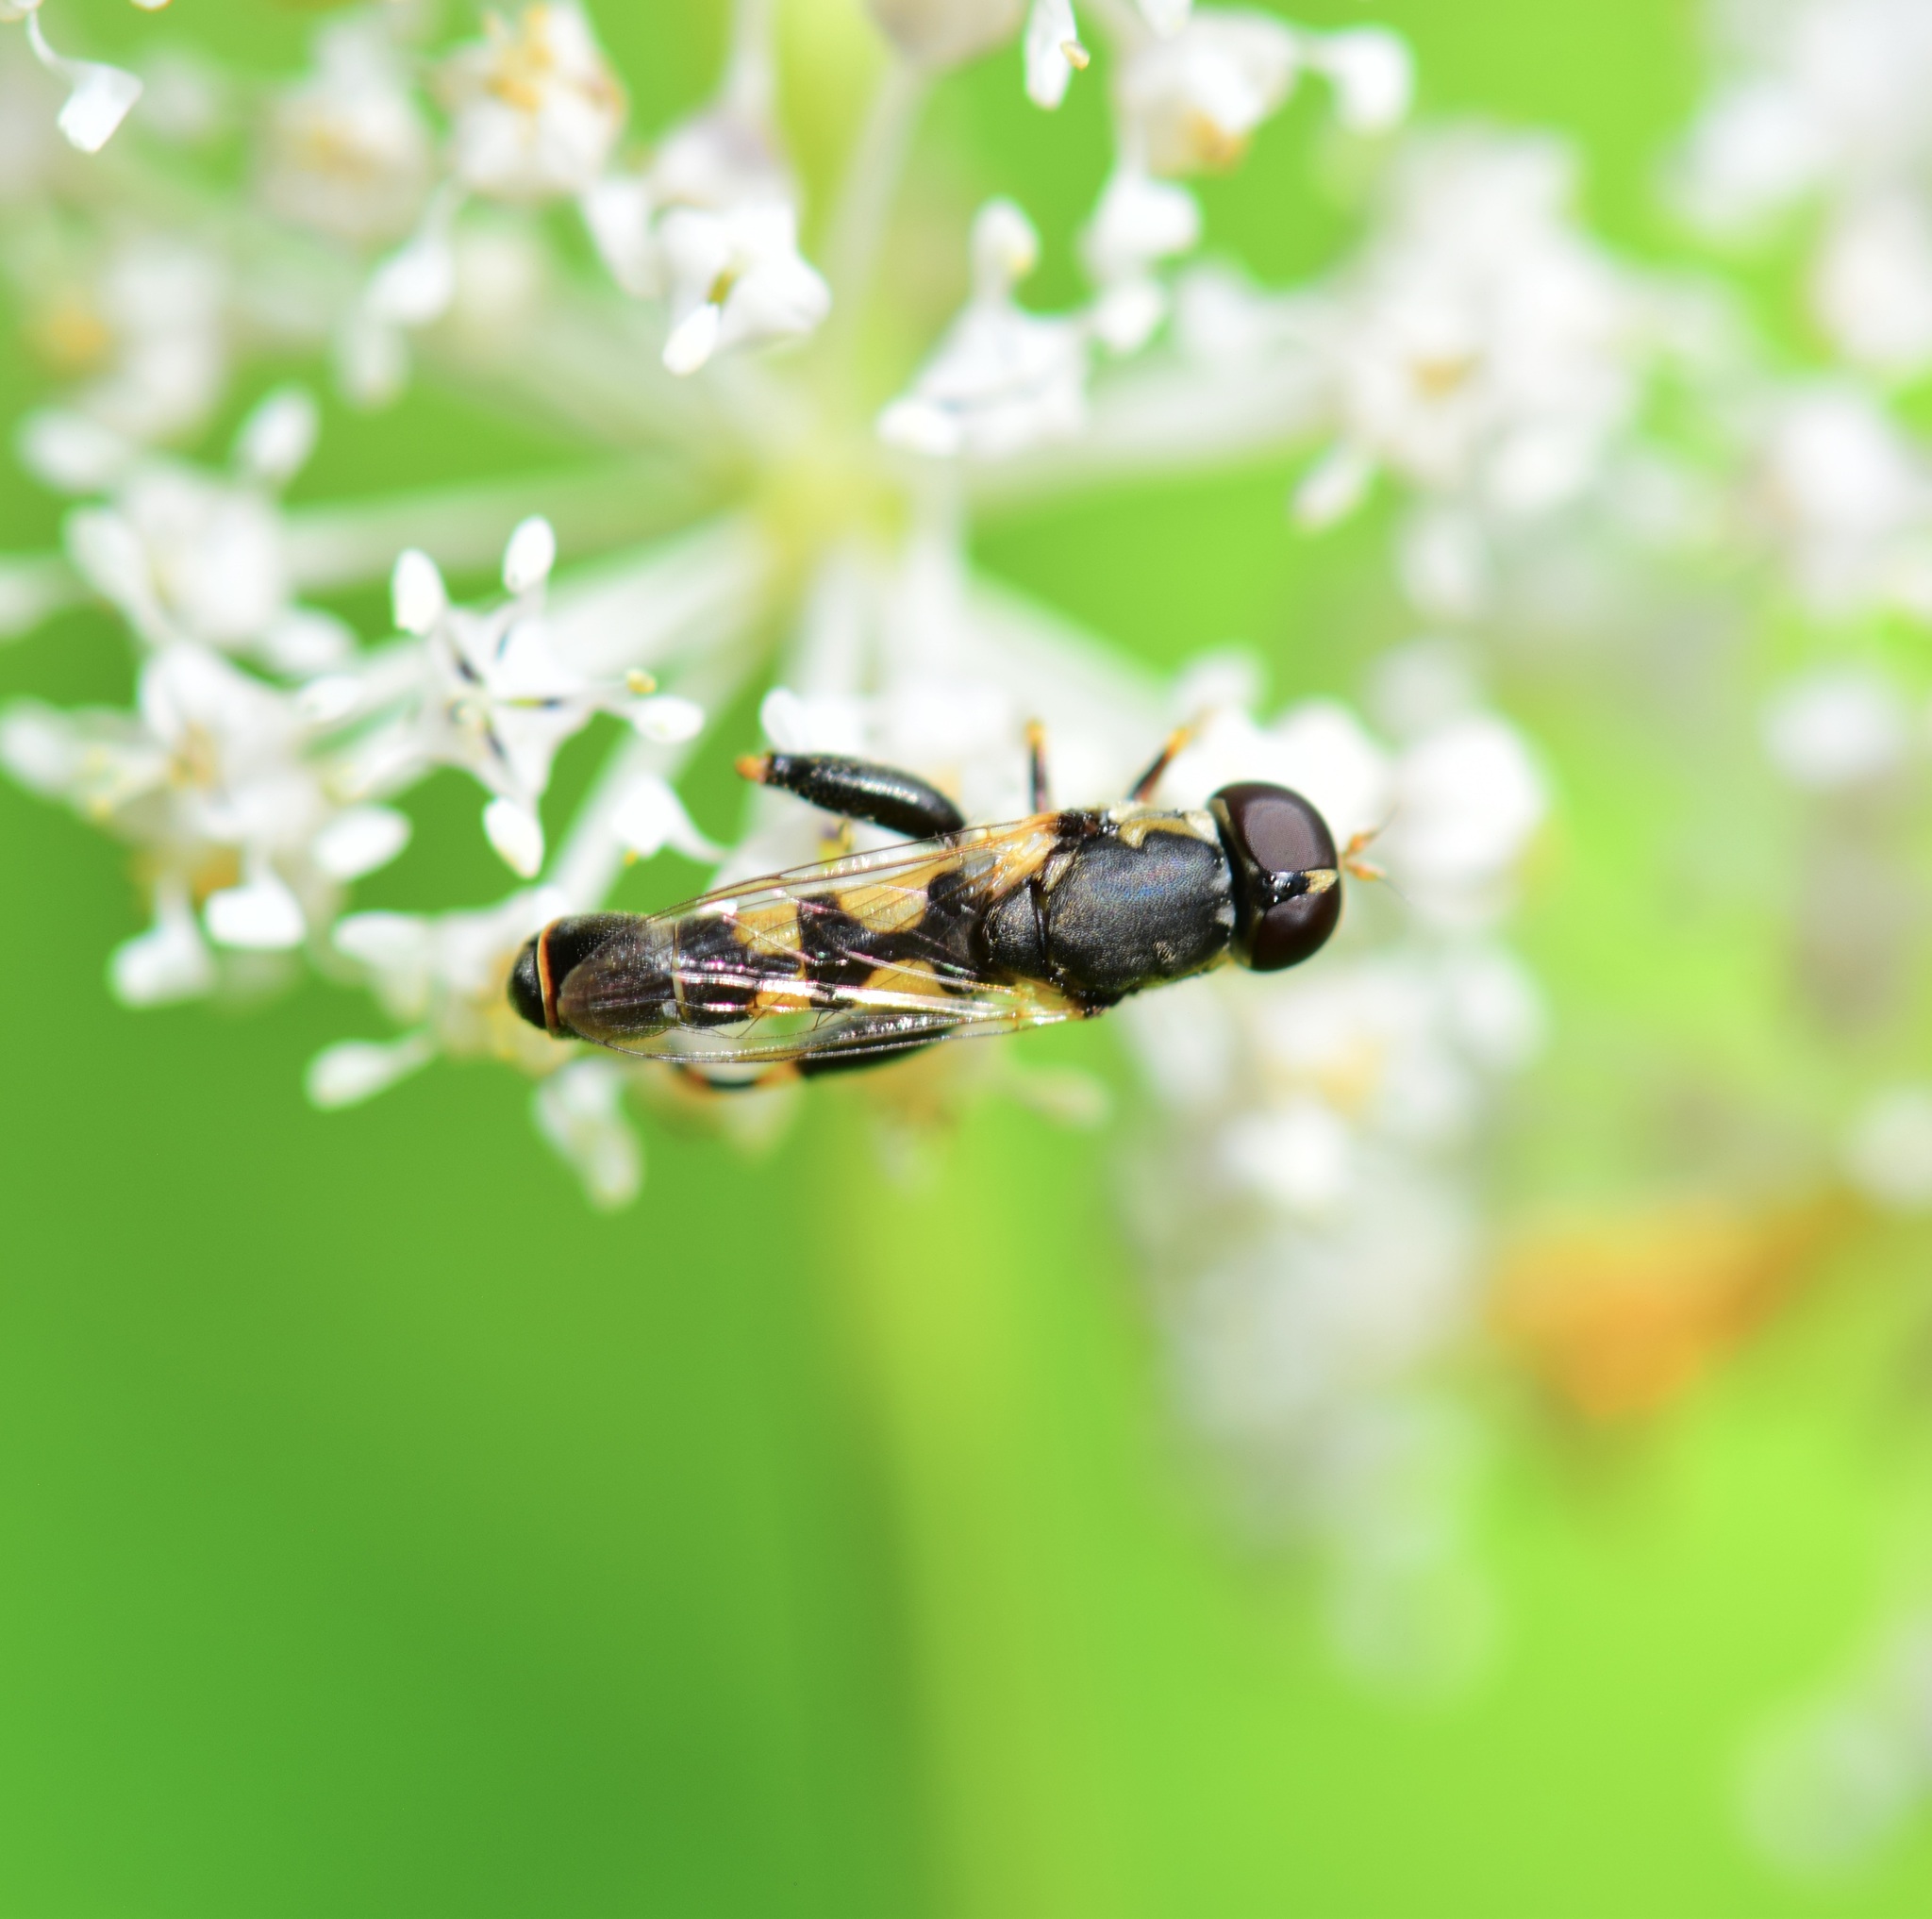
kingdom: Animalia
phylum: Arthropoda
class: Insecta
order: Diptera
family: Syrphidae
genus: Syritta
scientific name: Syritta pipiens
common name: Hover fly
